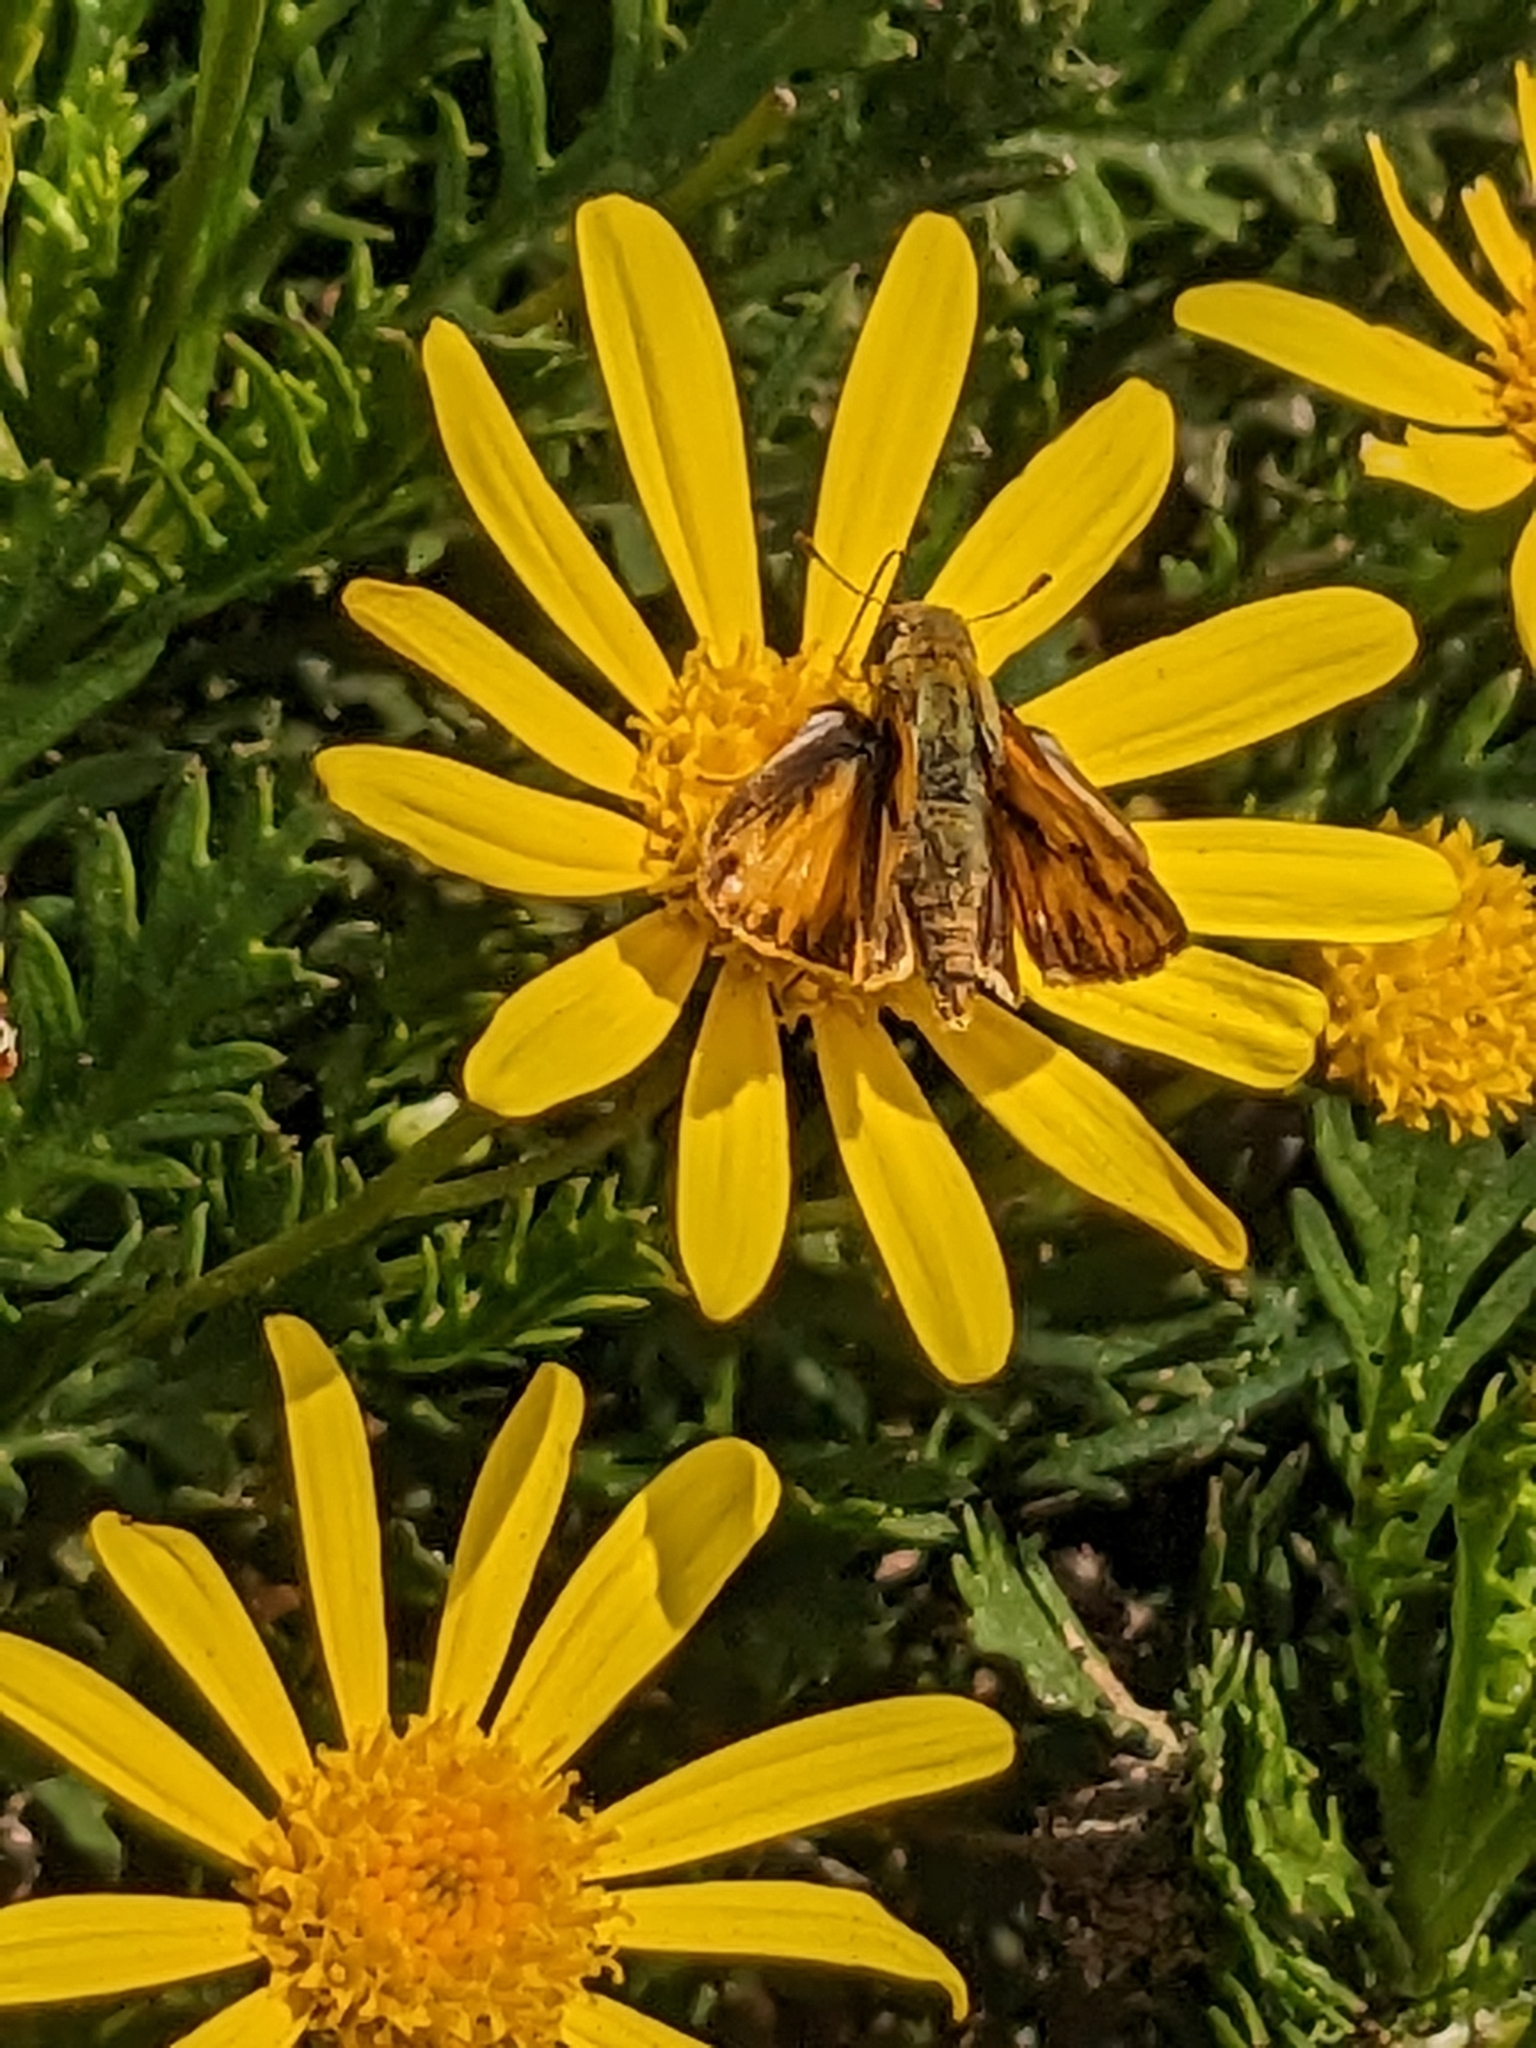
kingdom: Animalia
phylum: Arthropoda
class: Insecta
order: Lepidoptera
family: Hesperiidae
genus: Hylephila
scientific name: Hylephila phyleus
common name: Fiery skipper
